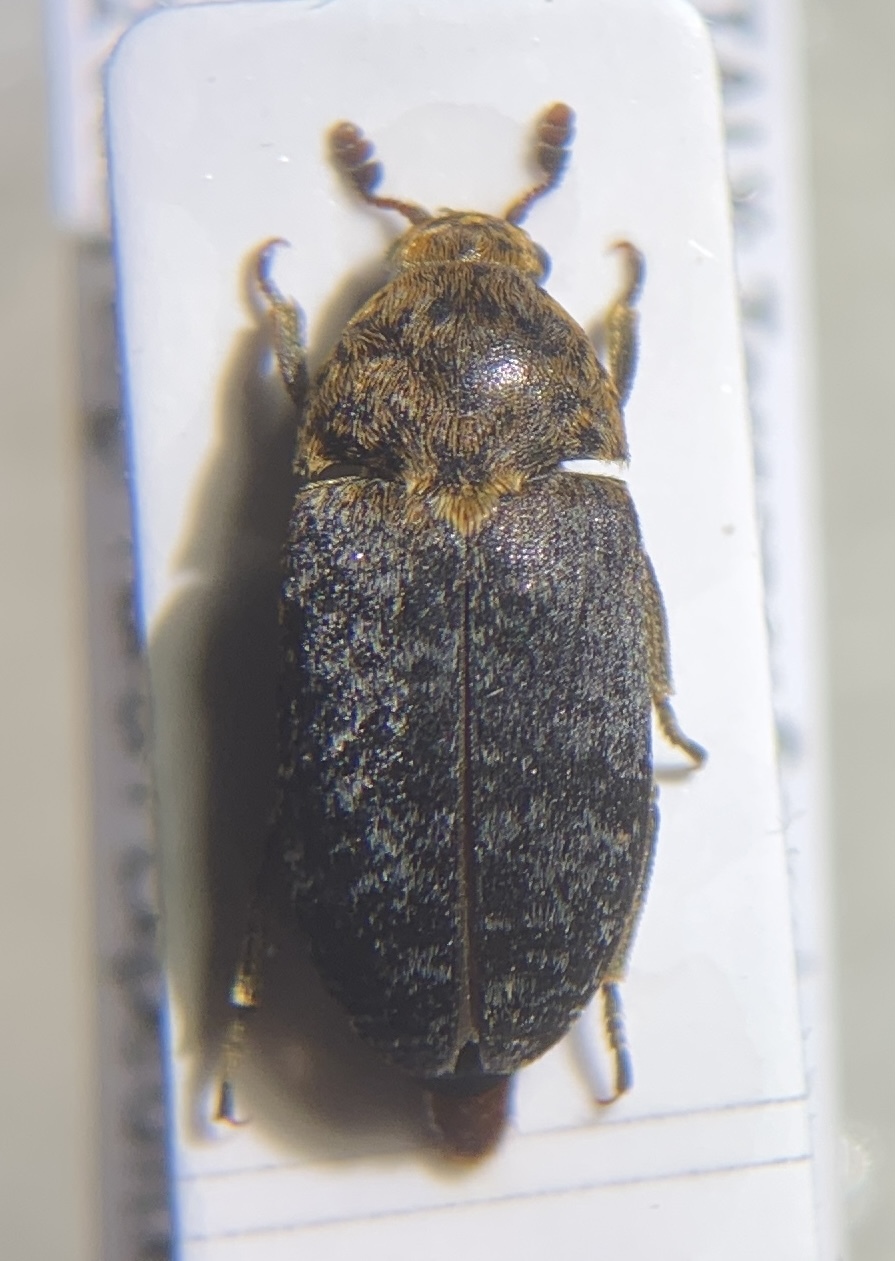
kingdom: Animalia
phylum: Arthropoda
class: Insecta
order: Coleoptera
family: Dermestidae
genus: Dermestes
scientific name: Dermestes undulatus
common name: Wavy carpet beetle
